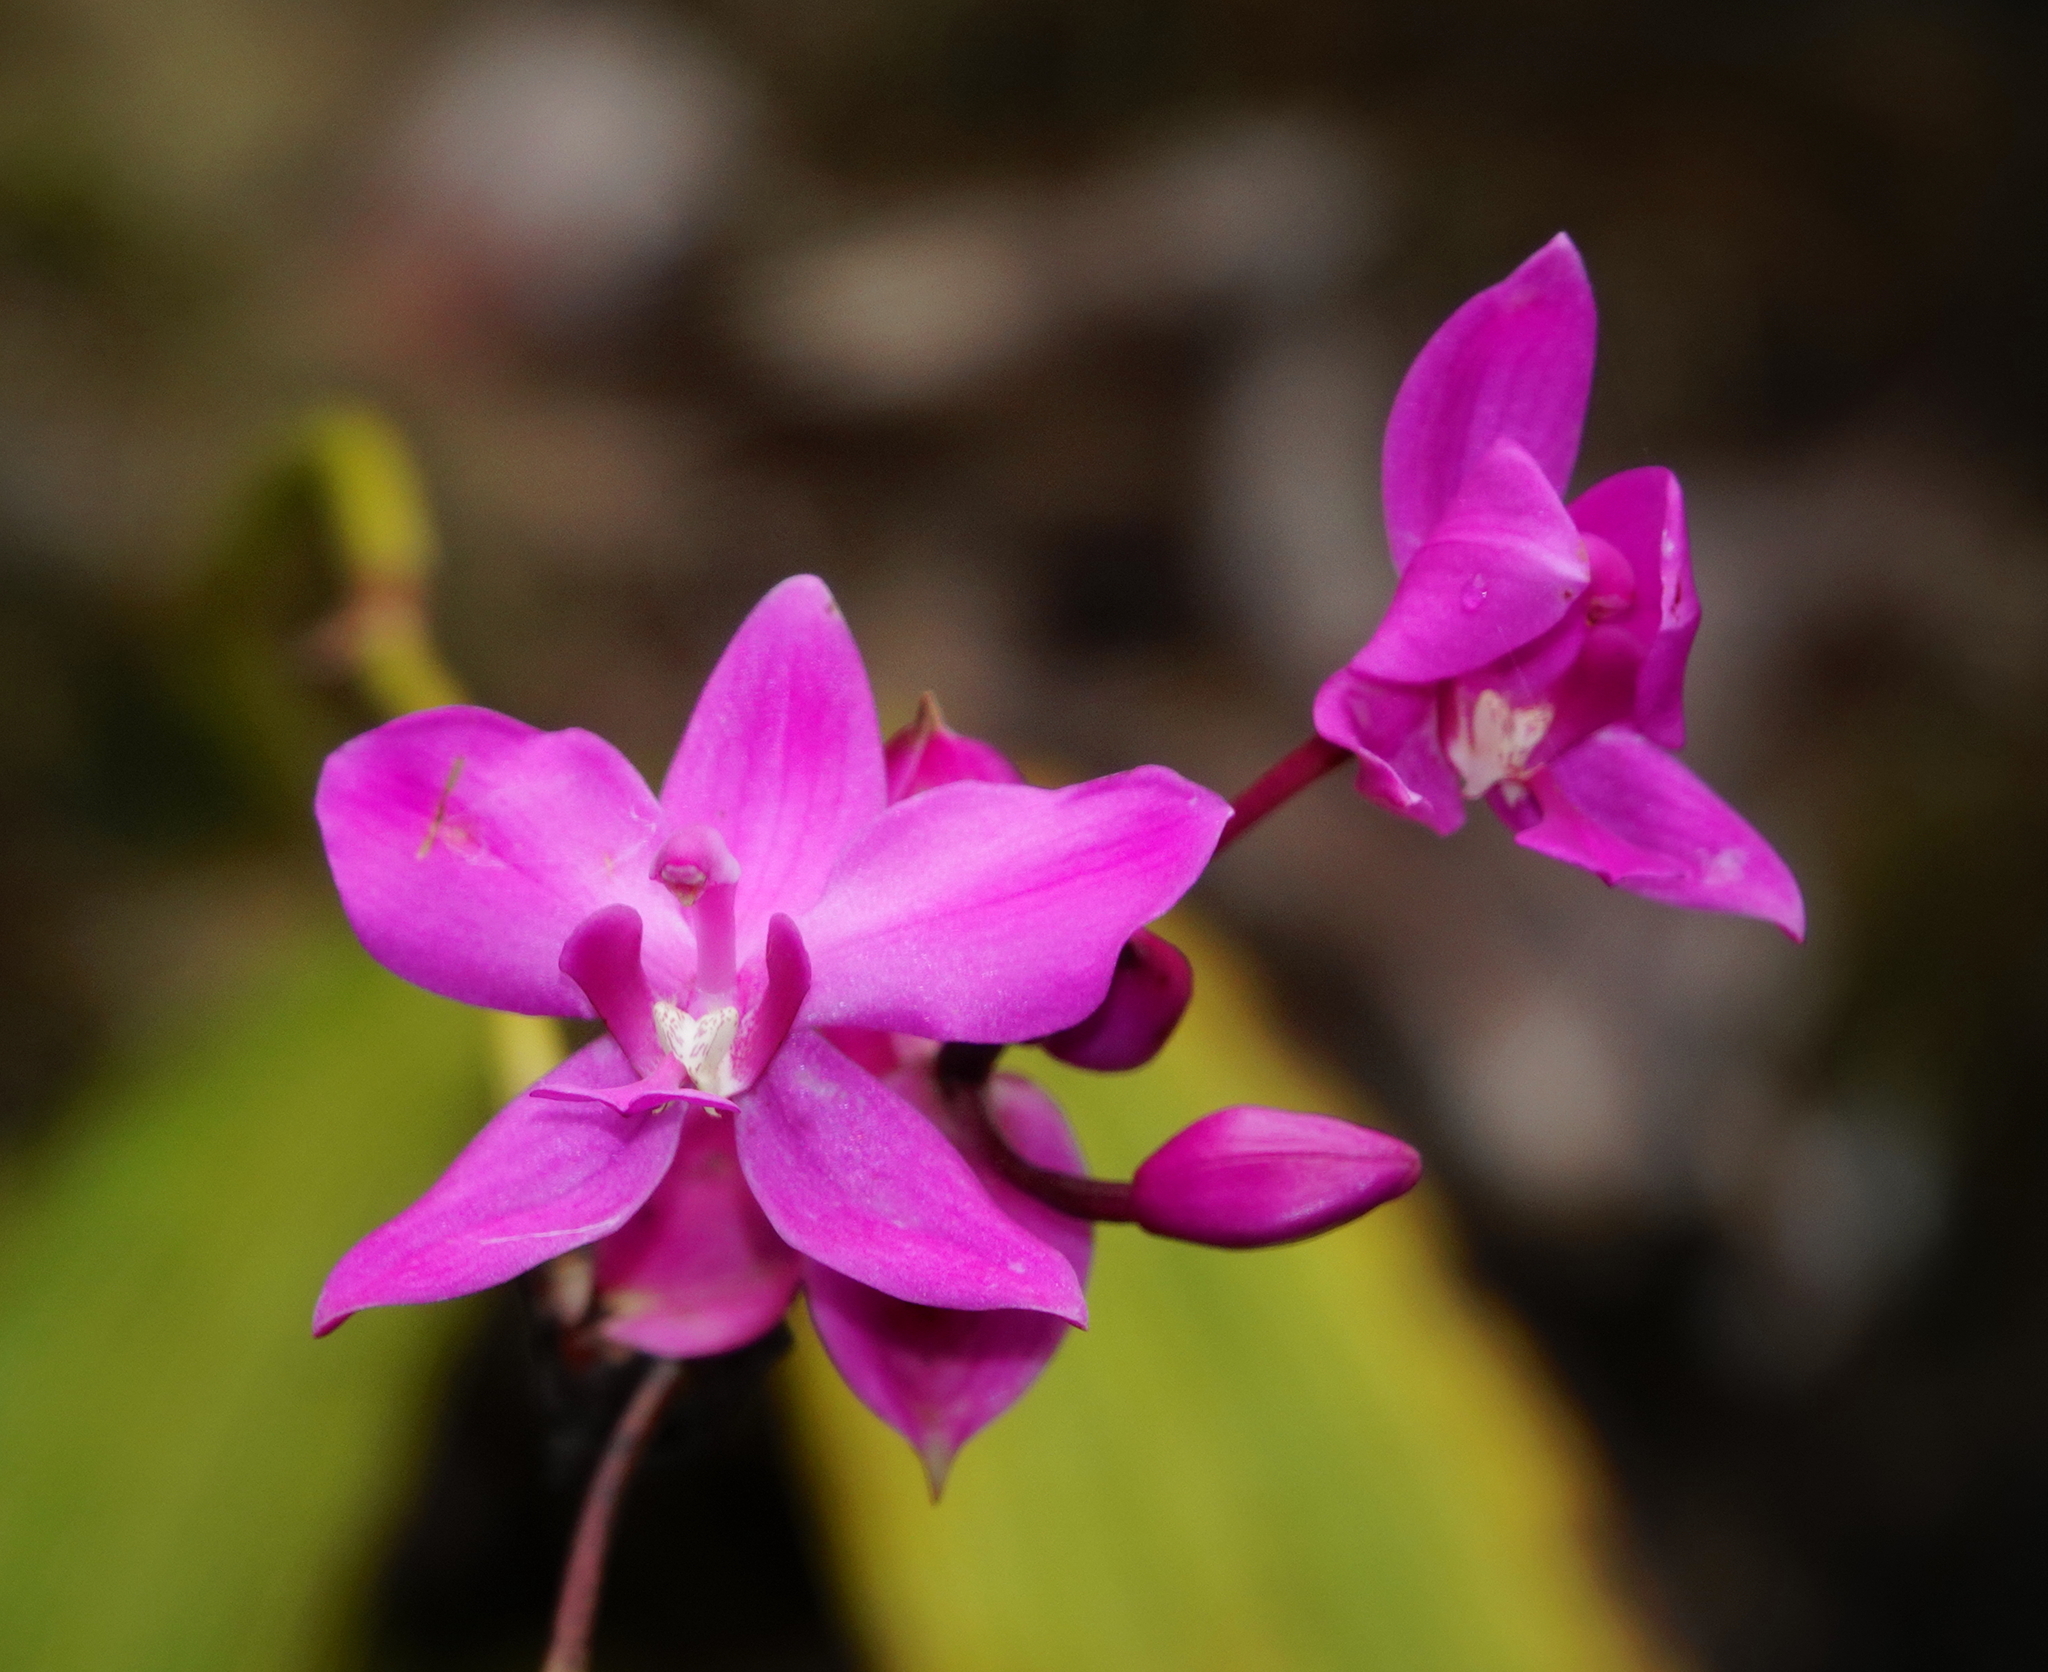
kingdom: Plantae
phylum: Tracheophyta
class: Liliopsida
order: Asparagales
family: Orchidaceae
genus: Spathoglottis
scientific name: Spathoglottis plicata
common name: Philippine ground orchid
